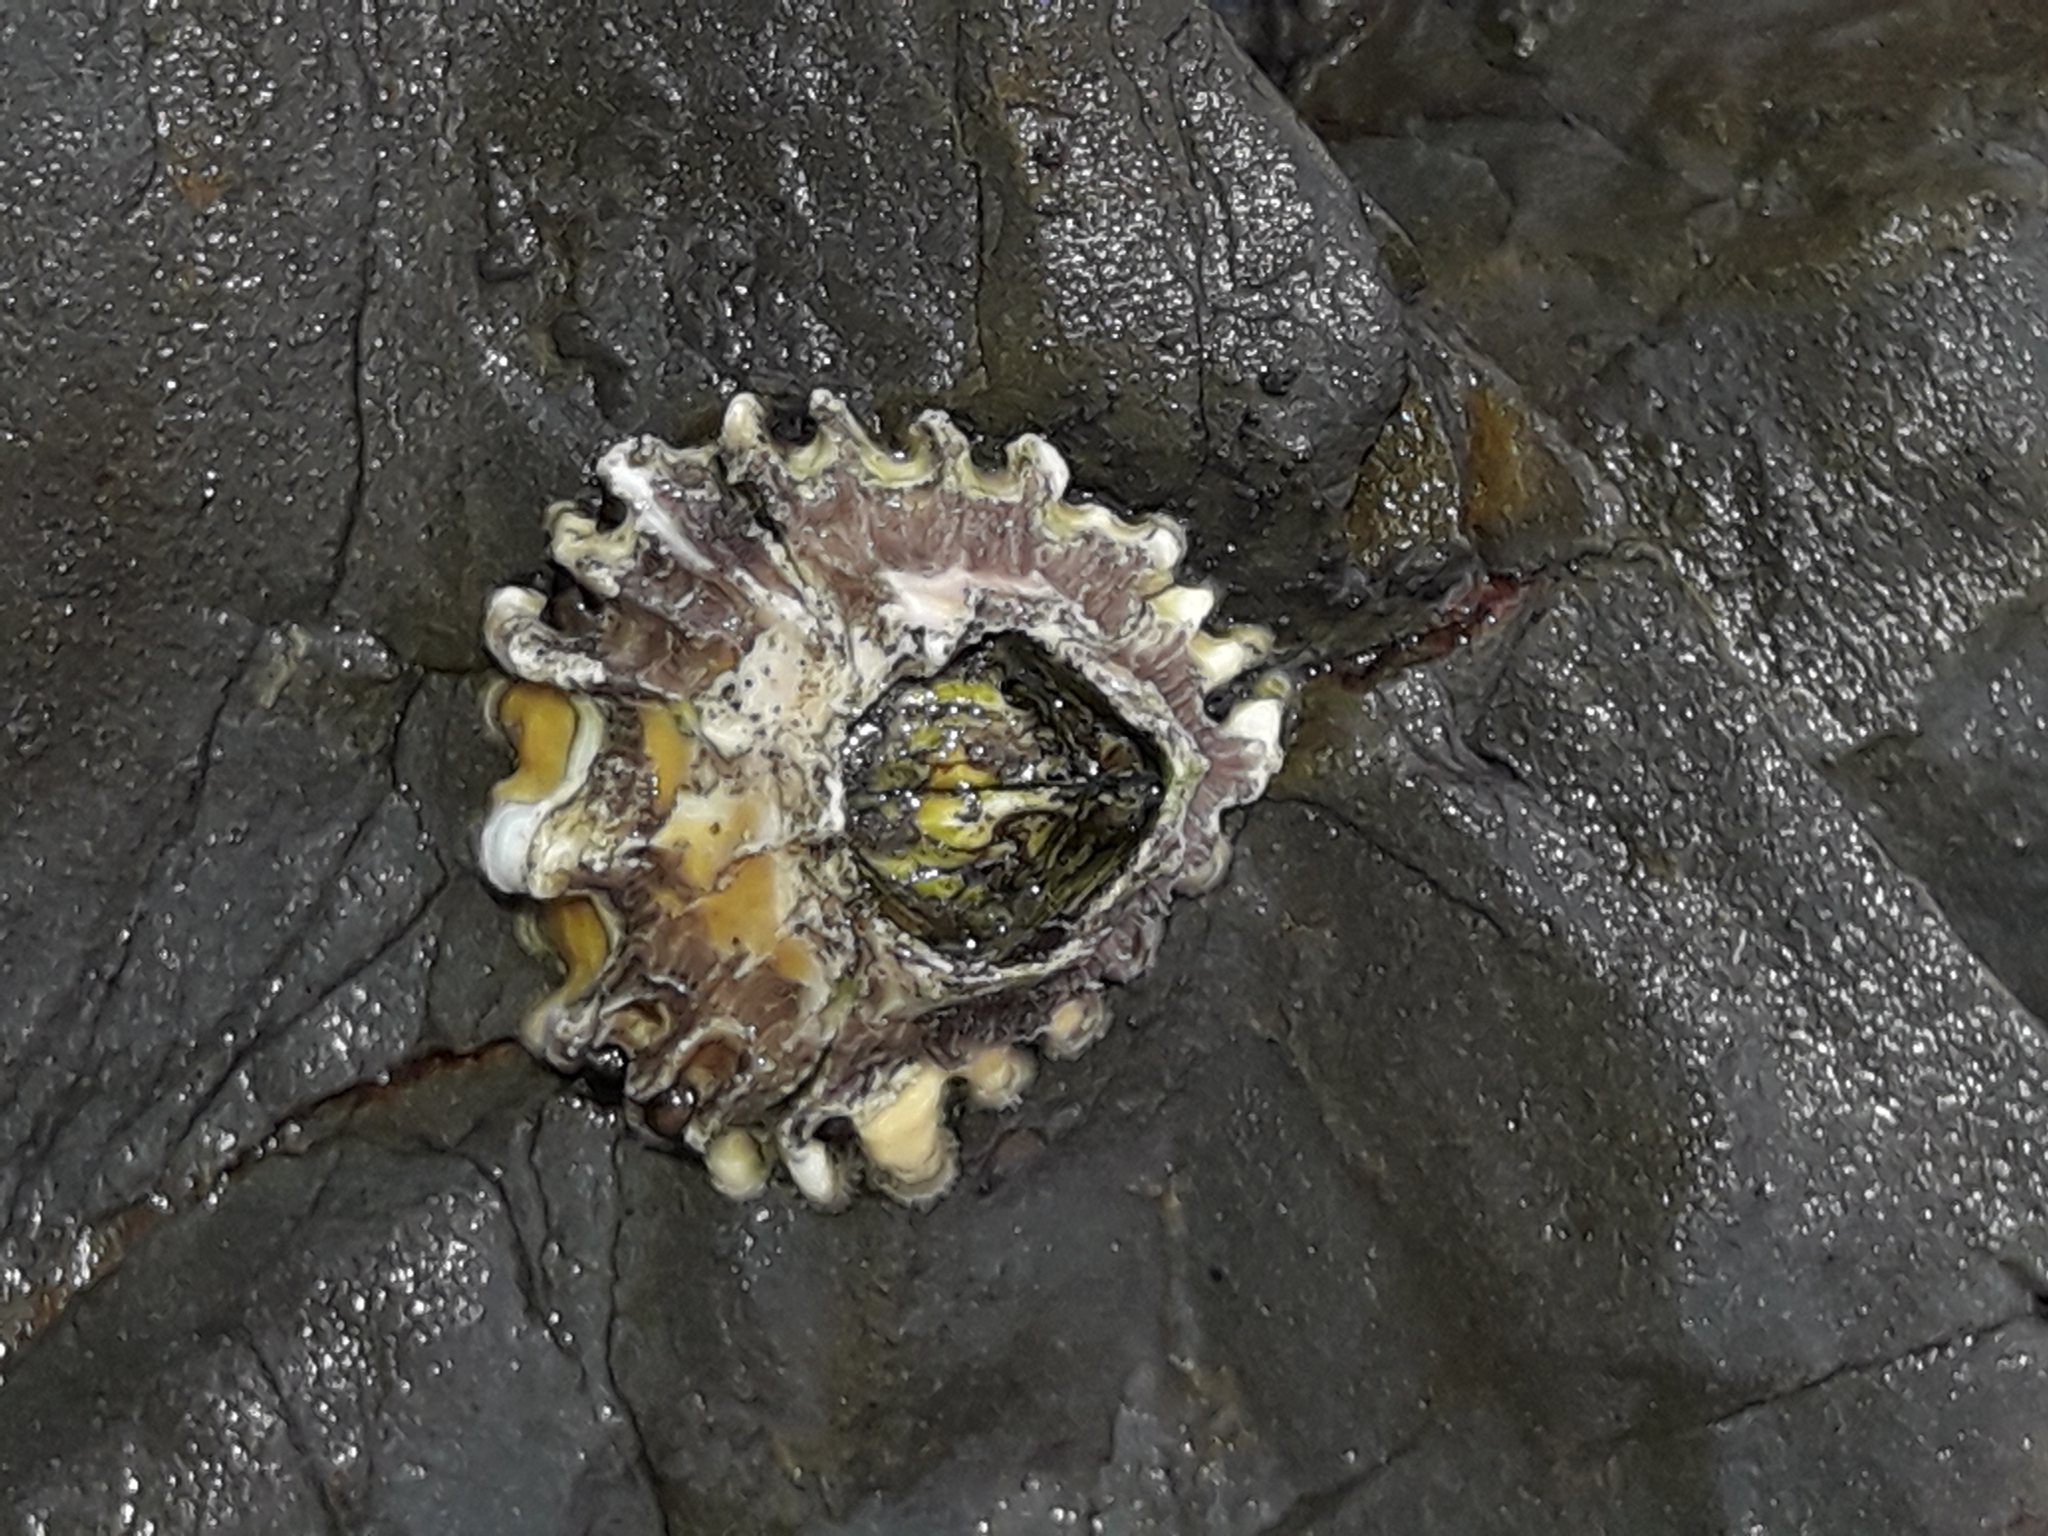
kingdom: Animalia
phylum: Arthropoda
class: Maxillopoda
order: Sessilia
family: Tetraclitidae
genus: Epopella
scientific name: Epopella plicata
